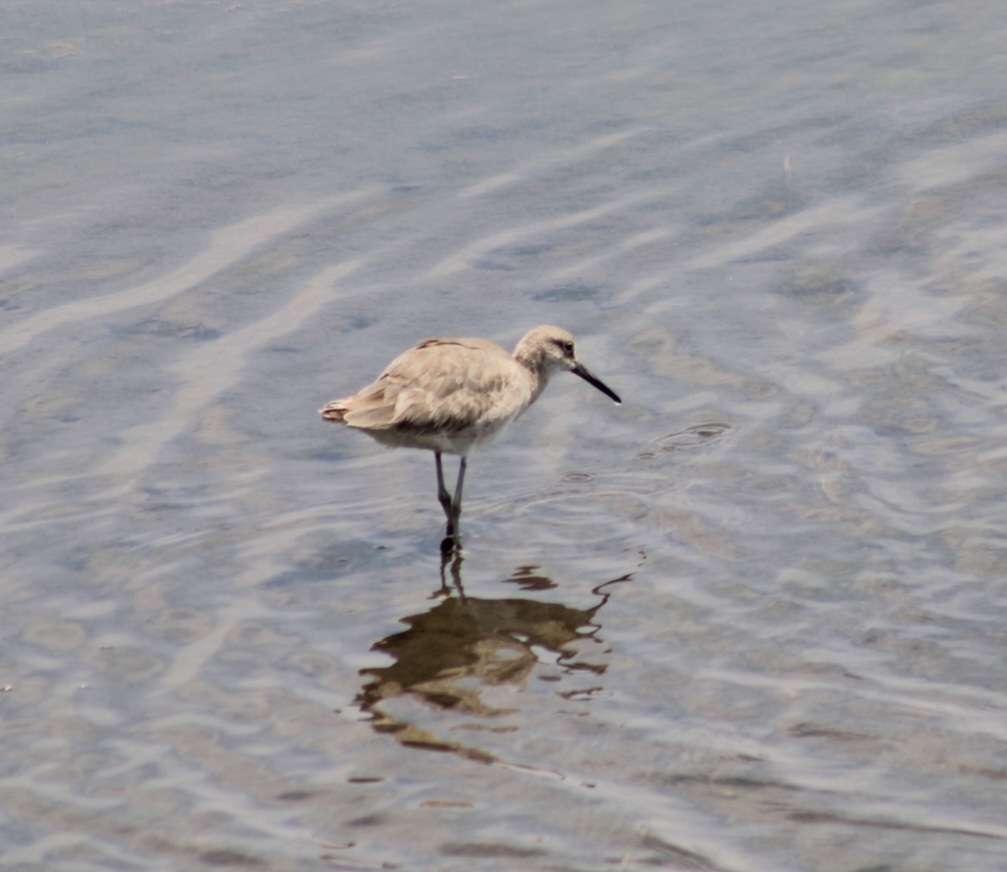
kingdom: Animalia
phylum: Chordata
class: Aves
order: Charadriiformes
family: Scolopacidae
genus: Tringa
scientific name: Tringa semipalmata
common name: Willet
